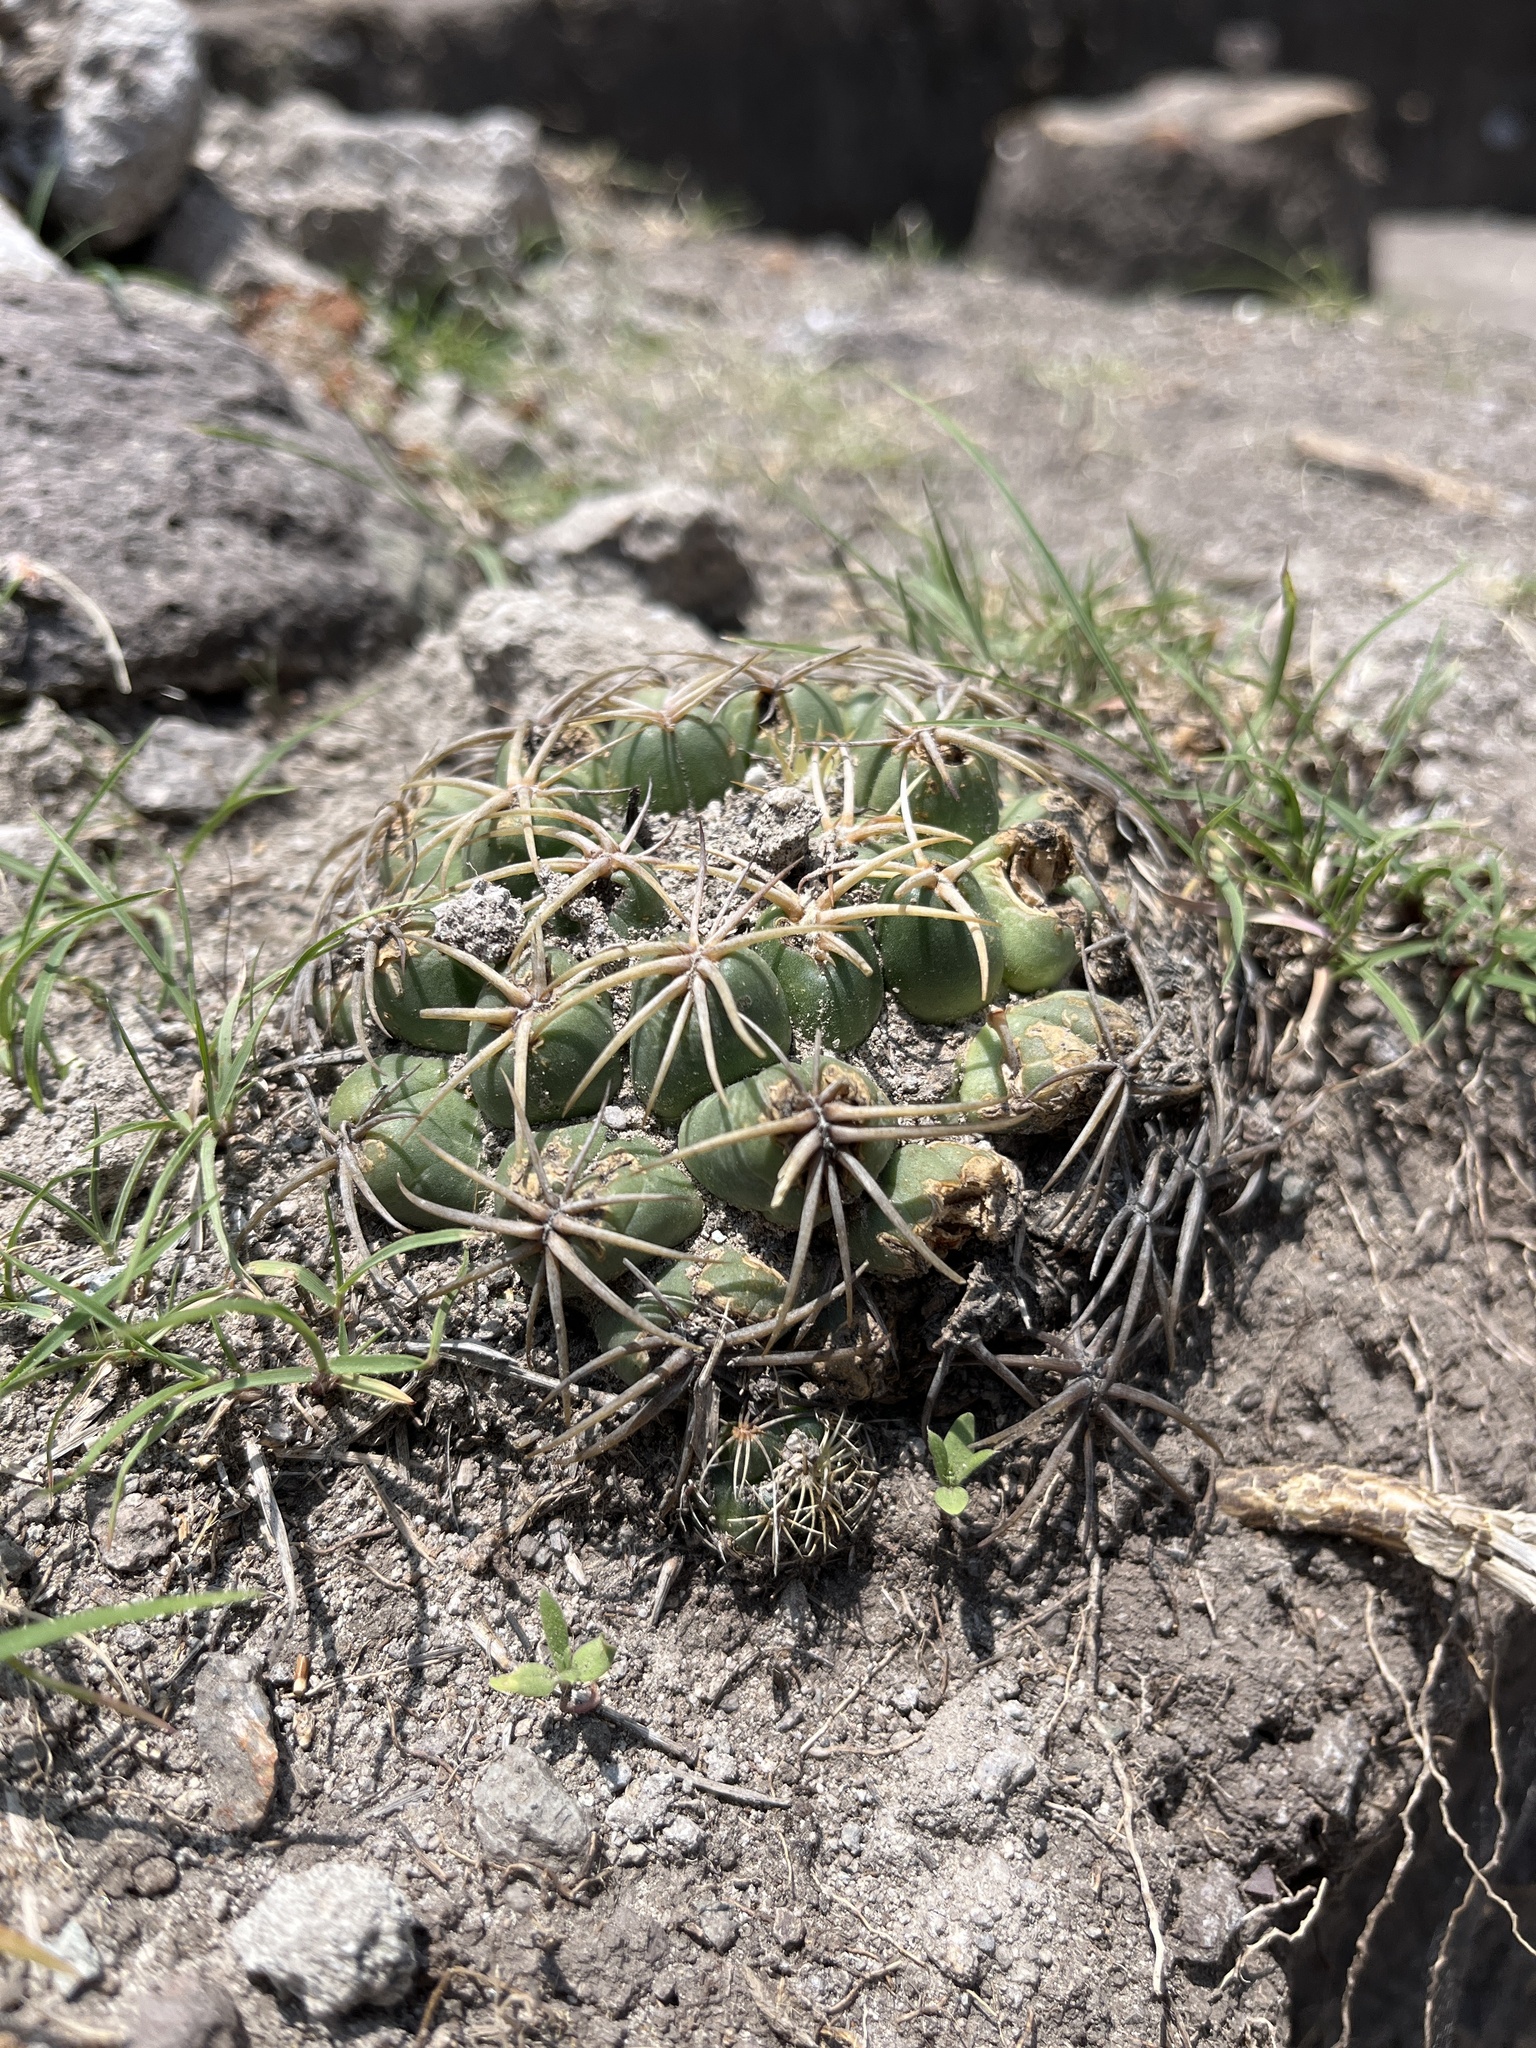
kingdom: Plantae
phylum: Tracheophyta
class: Magnoliopsida
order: Caryophyllales
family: Cactaceae
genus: Coryphantha
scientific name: Coryphantha elephantidens
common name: Elephant's tooth
